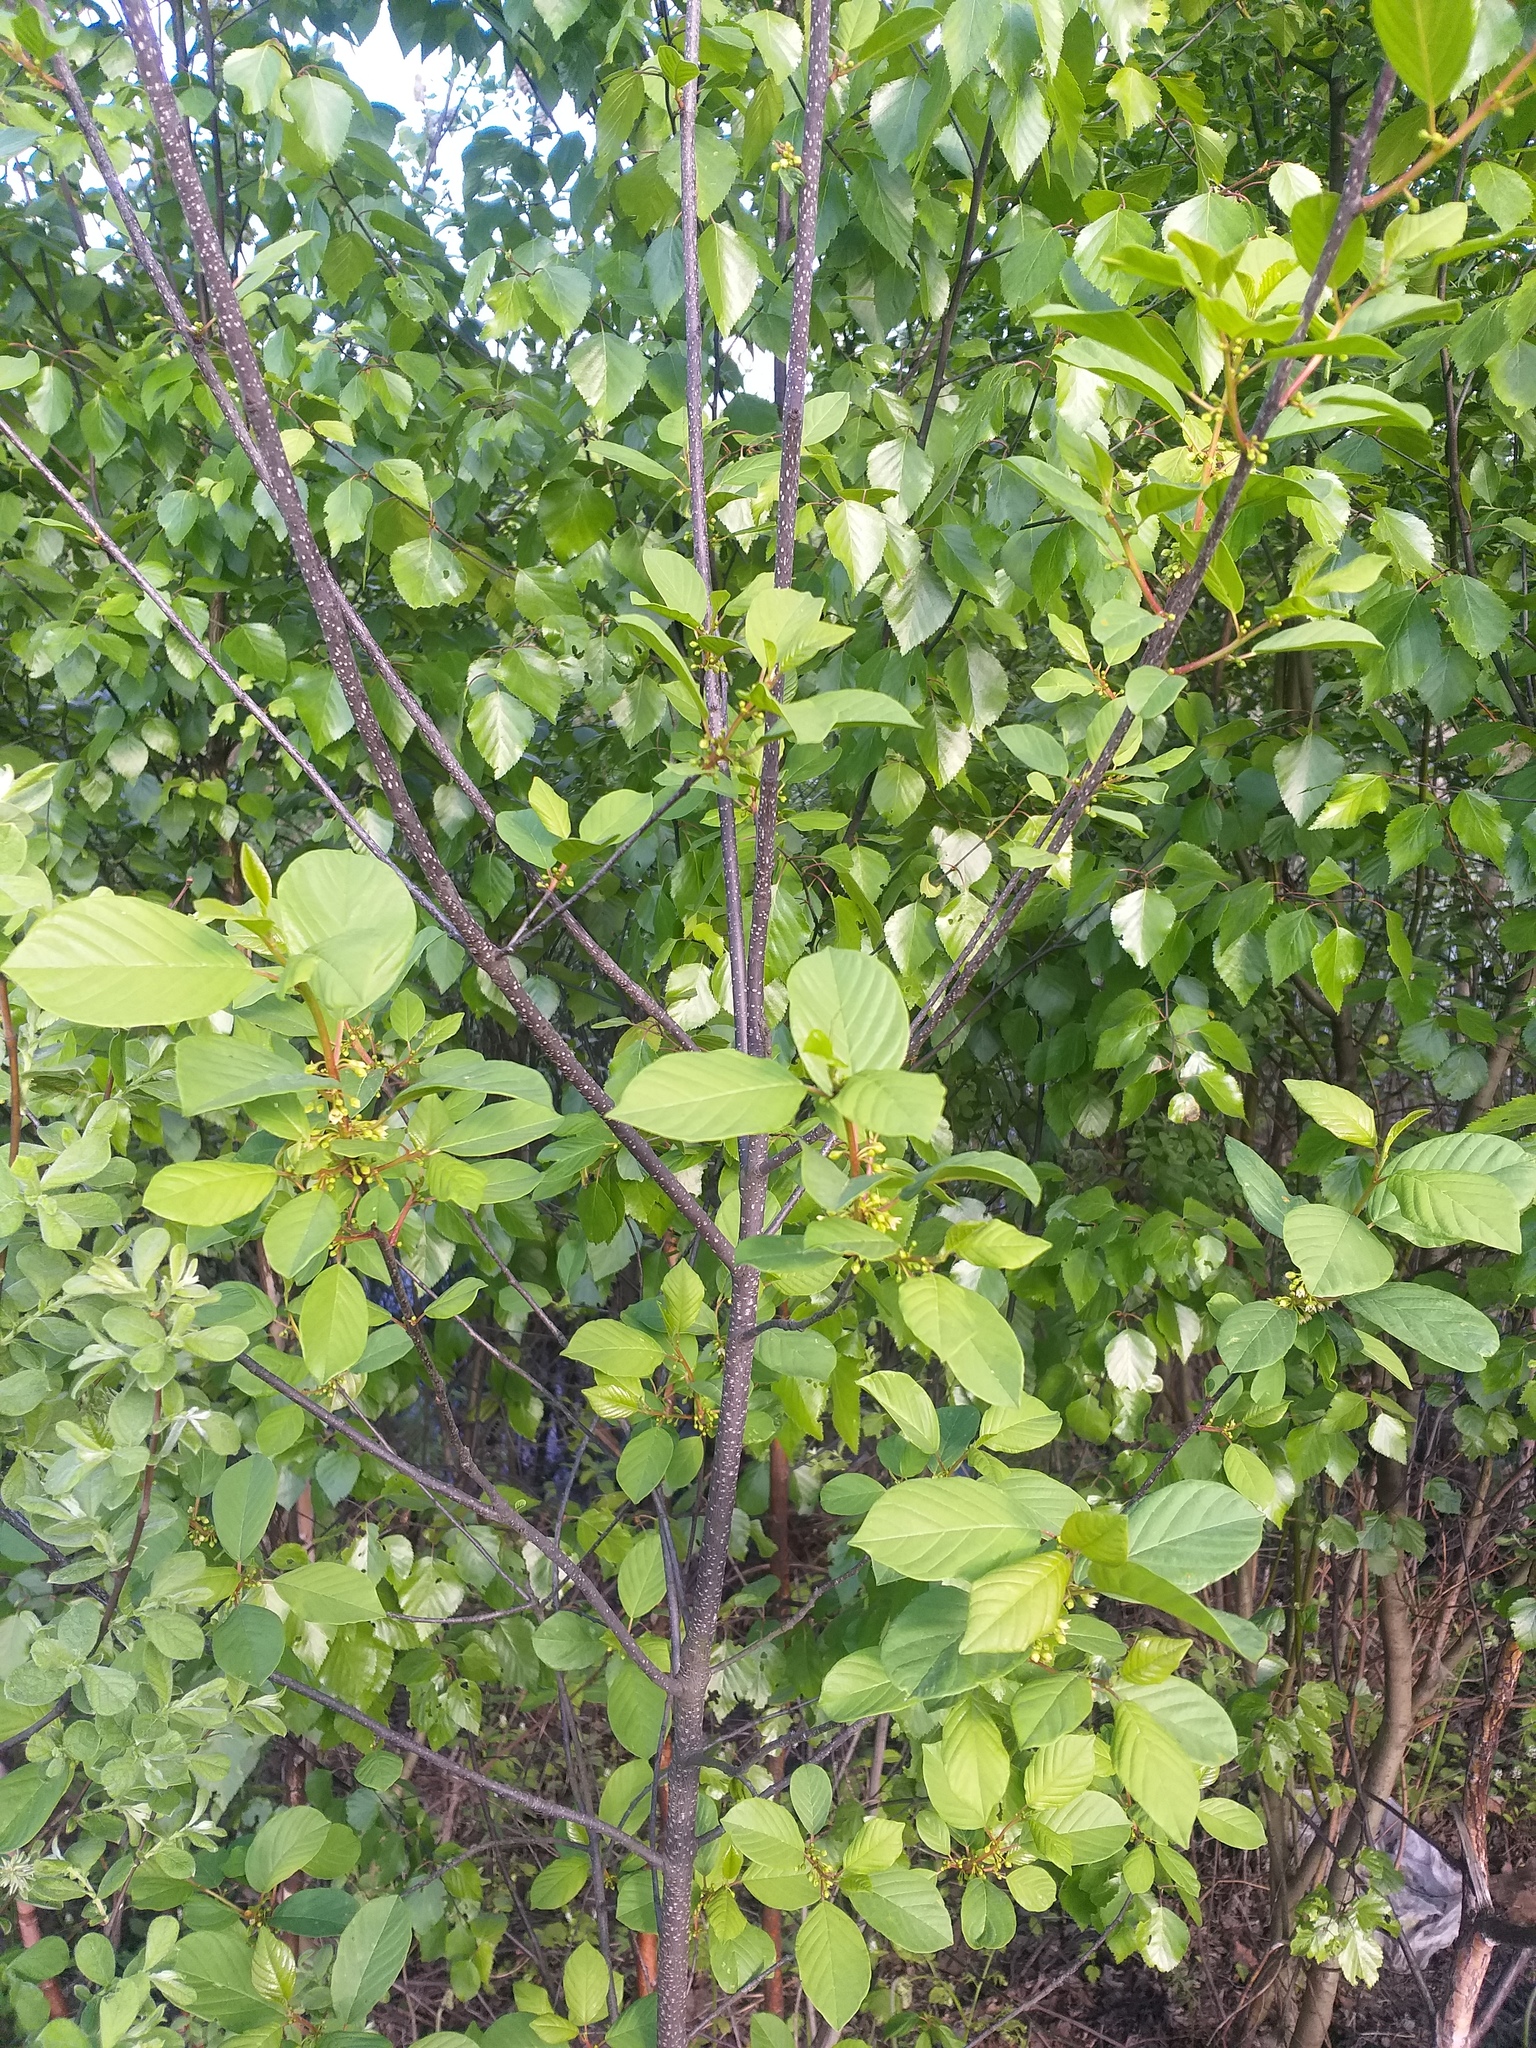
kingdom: Plantae
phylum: Tracheophyta
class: Magnoliopsida
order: Rosales
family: Rhamnaceae
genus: Frangula
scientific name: Frangula alnus
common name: Alder buckthorn
